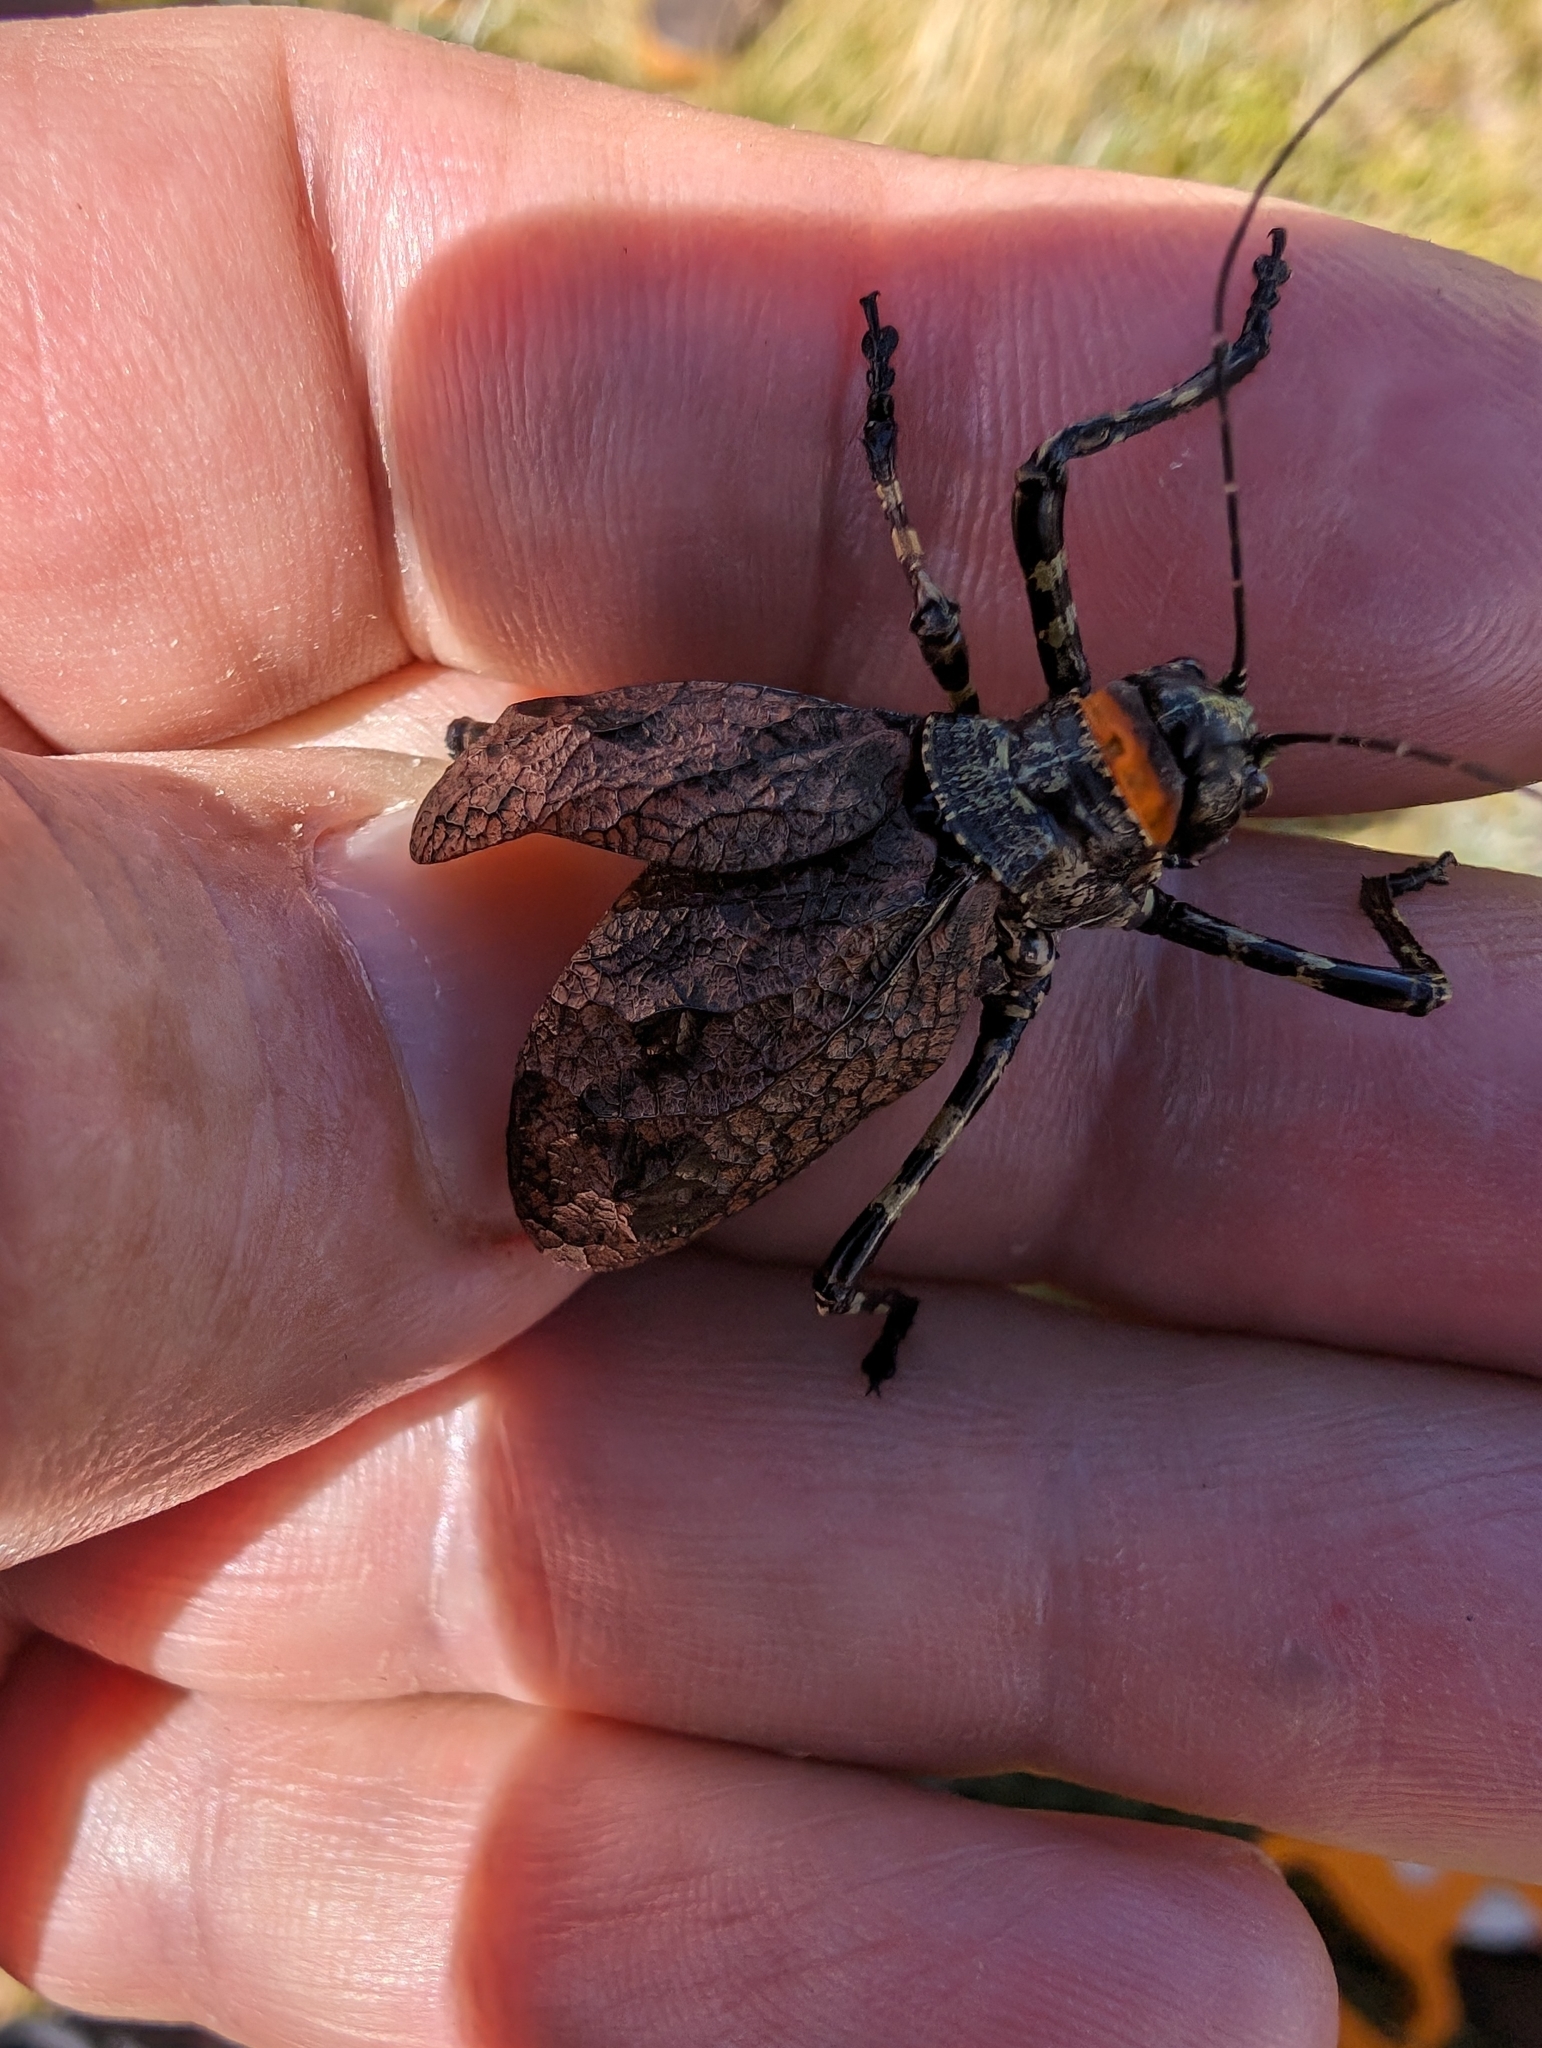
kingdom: Animalia
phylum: Arthropoda
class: Insecta
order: Orthoptera
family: Tettigoniidae
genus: Acripeza
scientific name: Acripeza reticulata
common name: Mountain katydid
